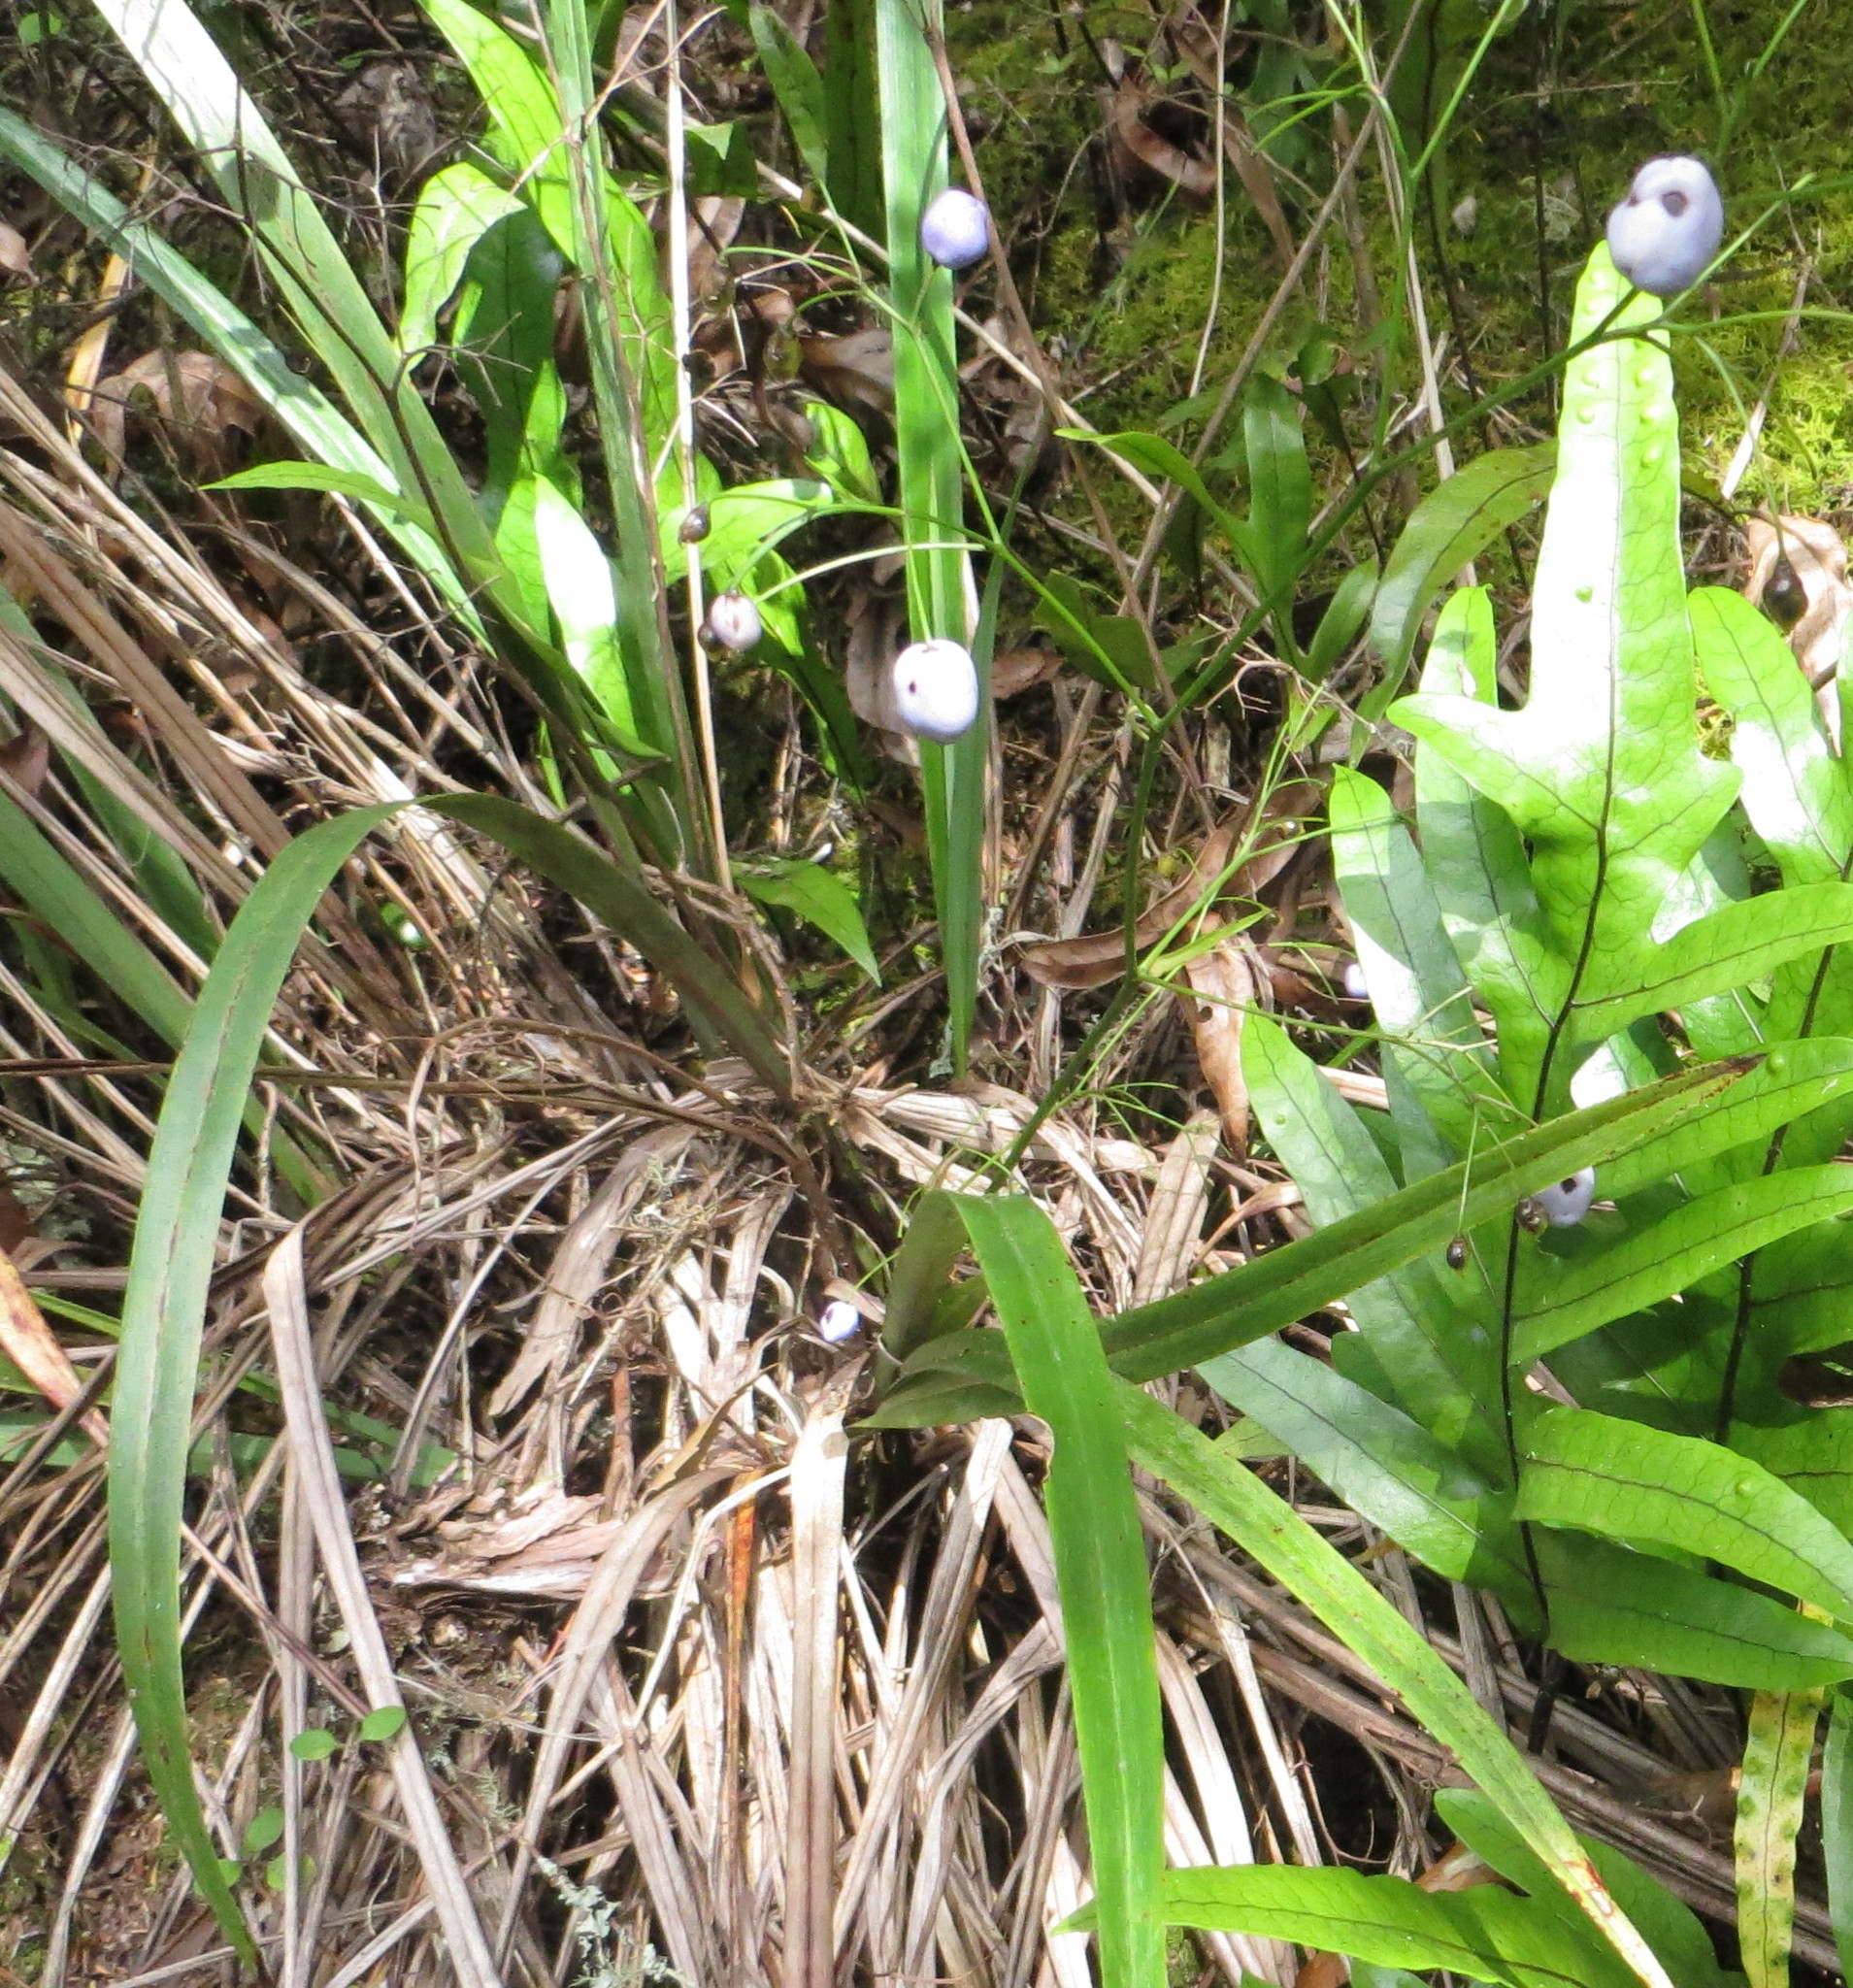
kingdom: Plantae
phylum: Tracheophyta
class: Liliopsida
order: Asparagales
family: Asphodelaceae
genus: Dianella
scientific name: Dianella nigra
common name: New zealand-blueberry
